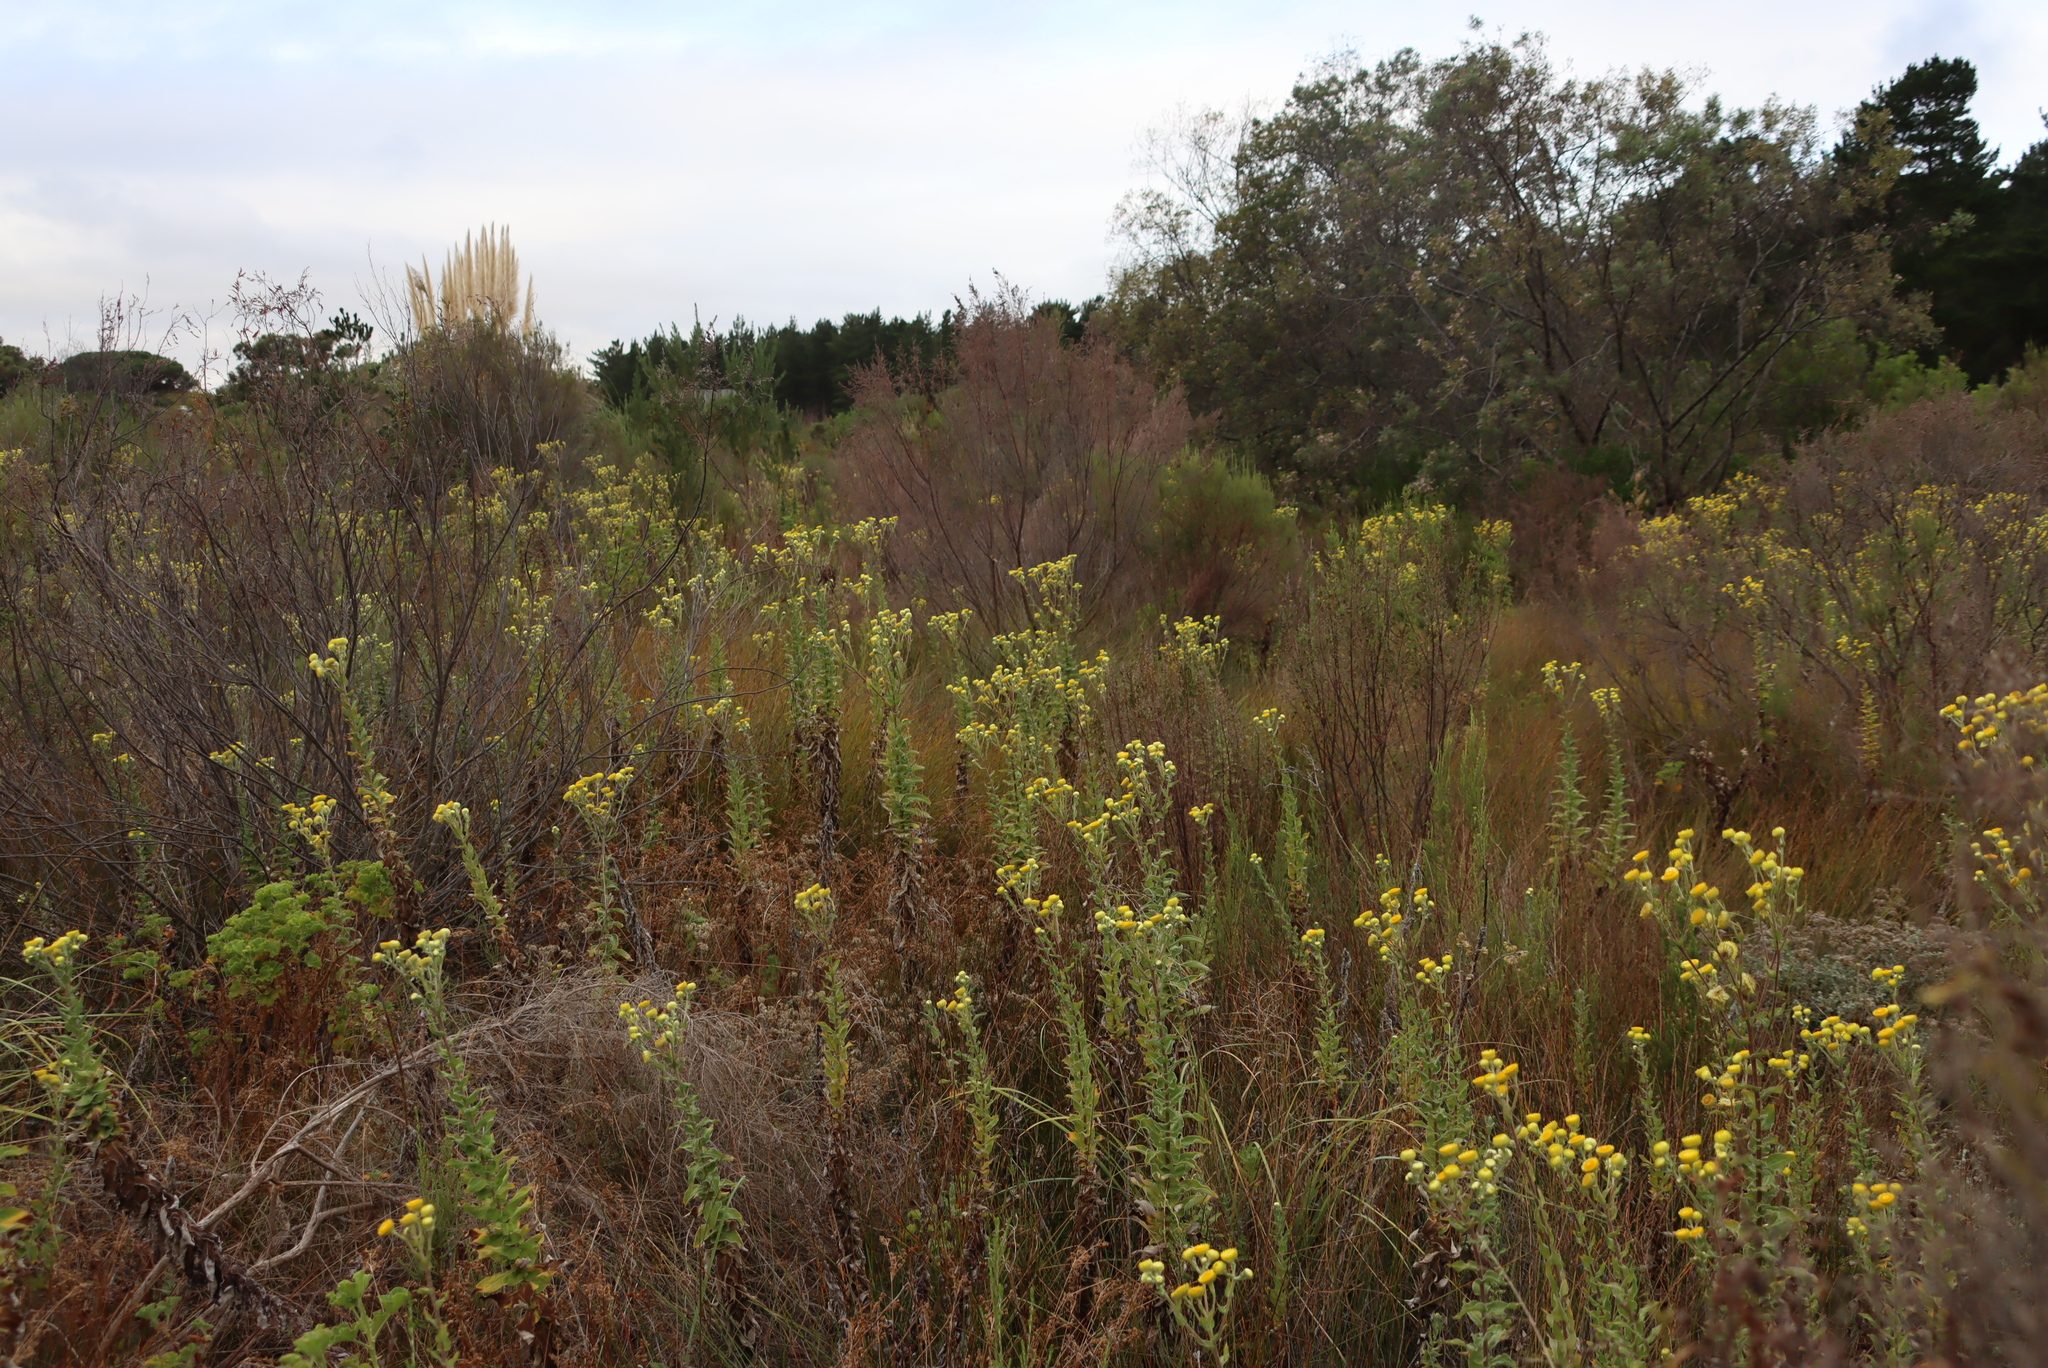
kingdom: Plantae
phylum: Tracheophyta
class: Magnoliopsida
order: Asterales
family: Asteraceae
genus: Helichrysum
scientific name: Helichrysum foetidum
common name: Stinking everlasting
